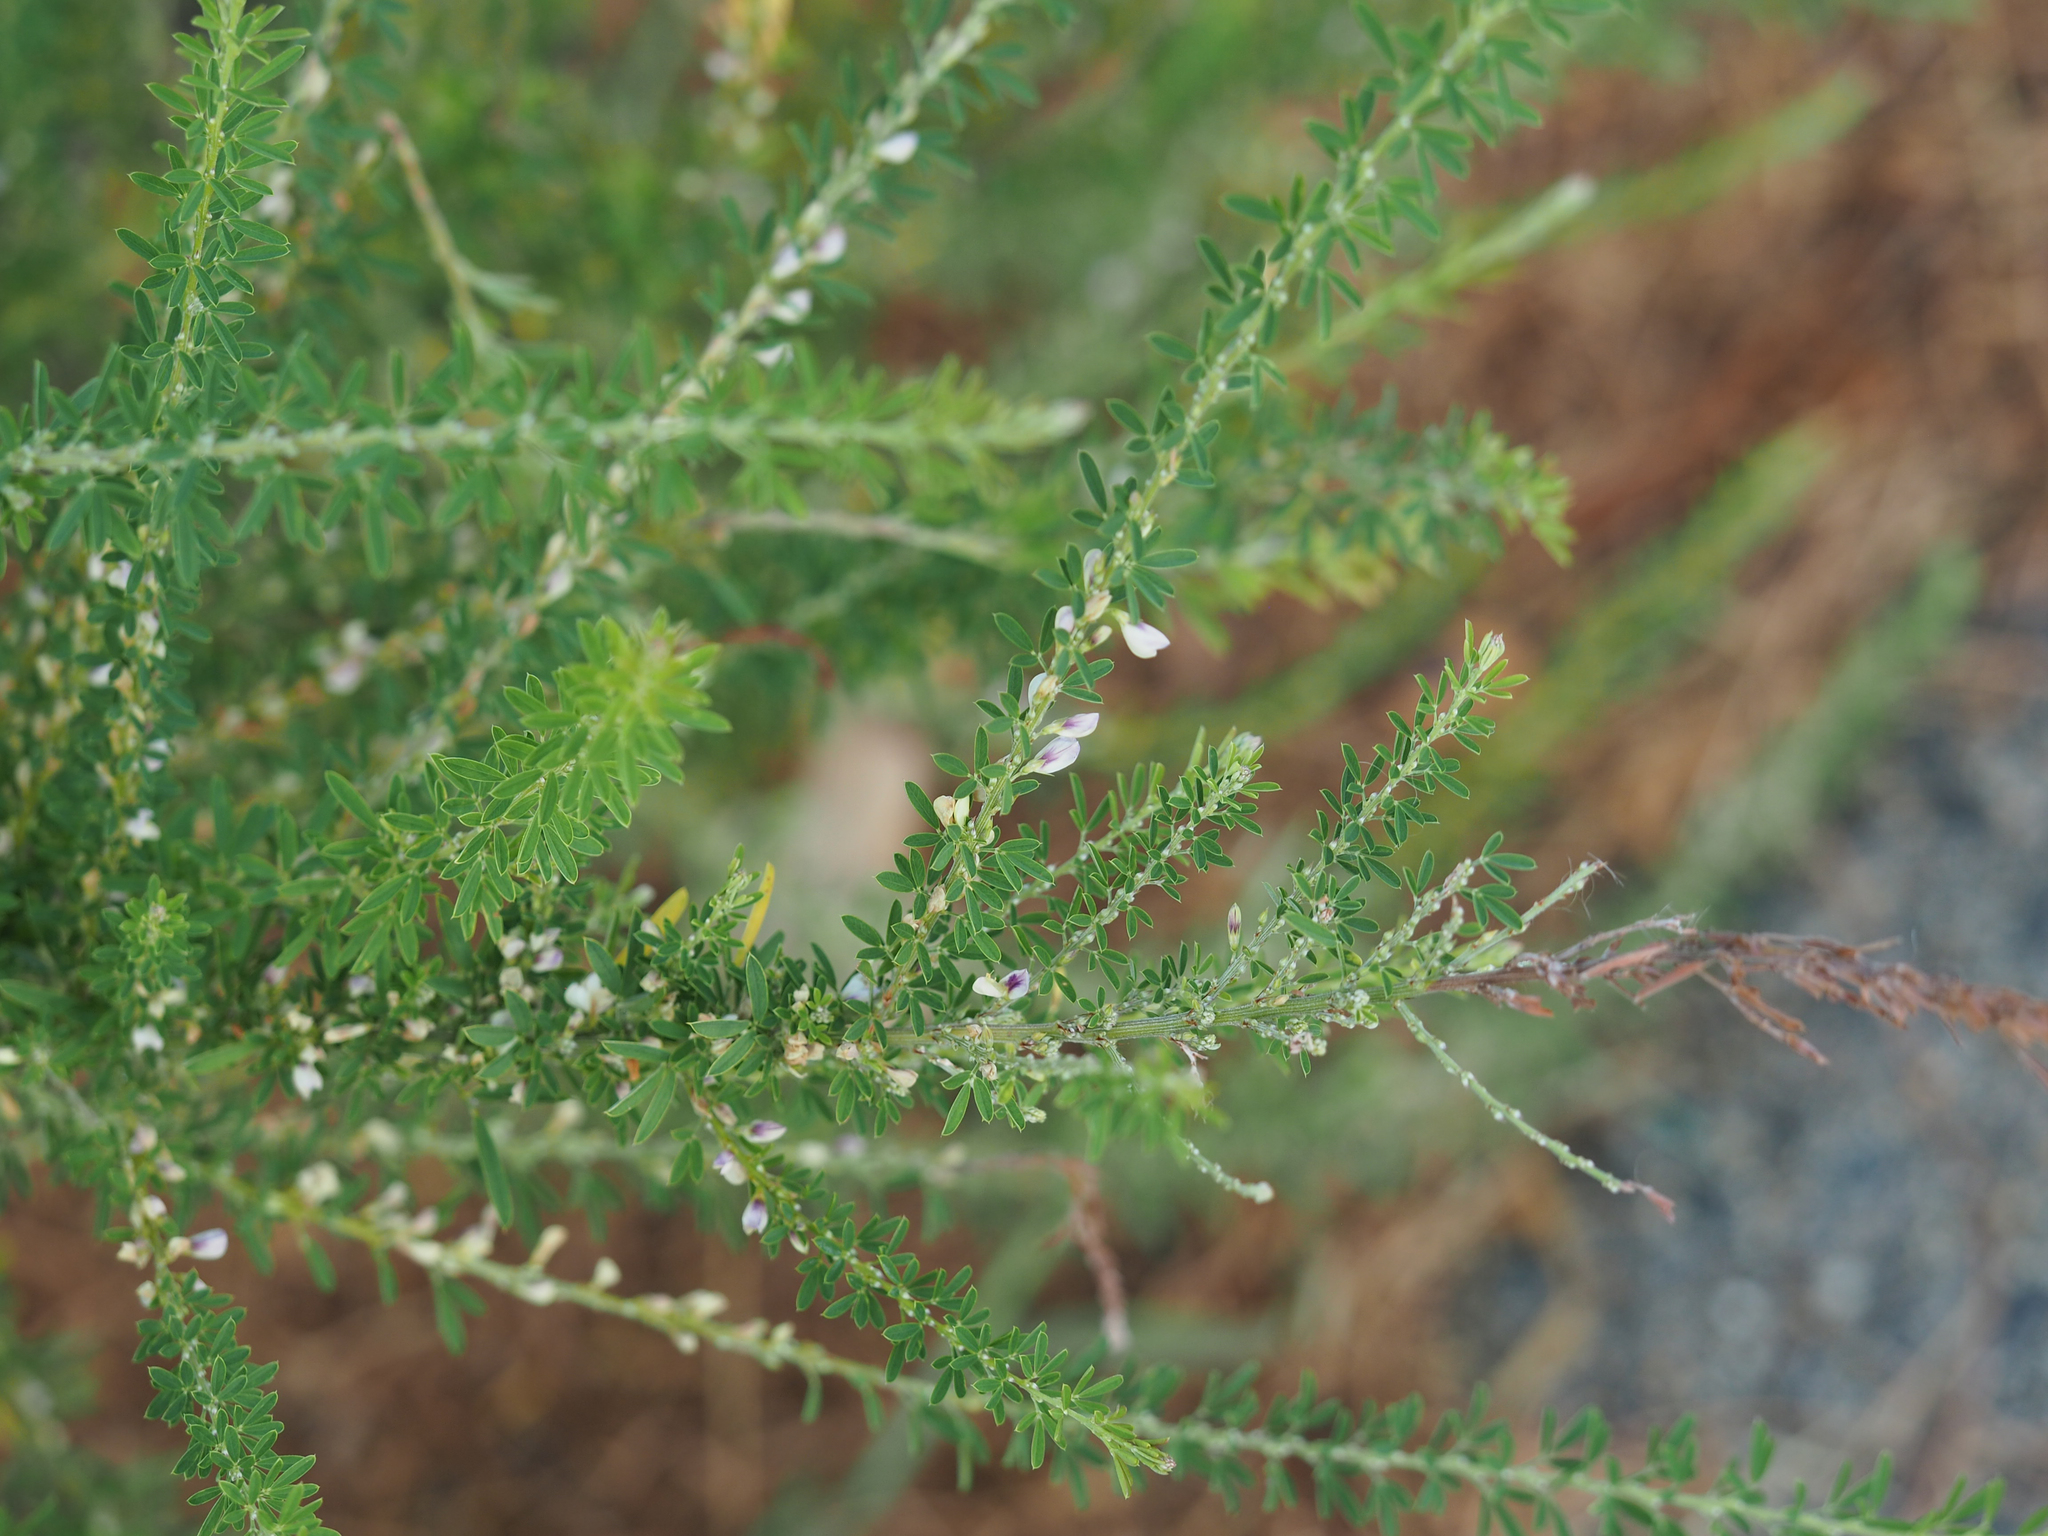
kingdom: Plantae
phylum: Tracheophyta
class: Magnoliopsida
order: Fabales
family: Fabaceae
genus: Lespedeza
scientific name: Lespedeza cuneata
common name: Chinese bush-clover
